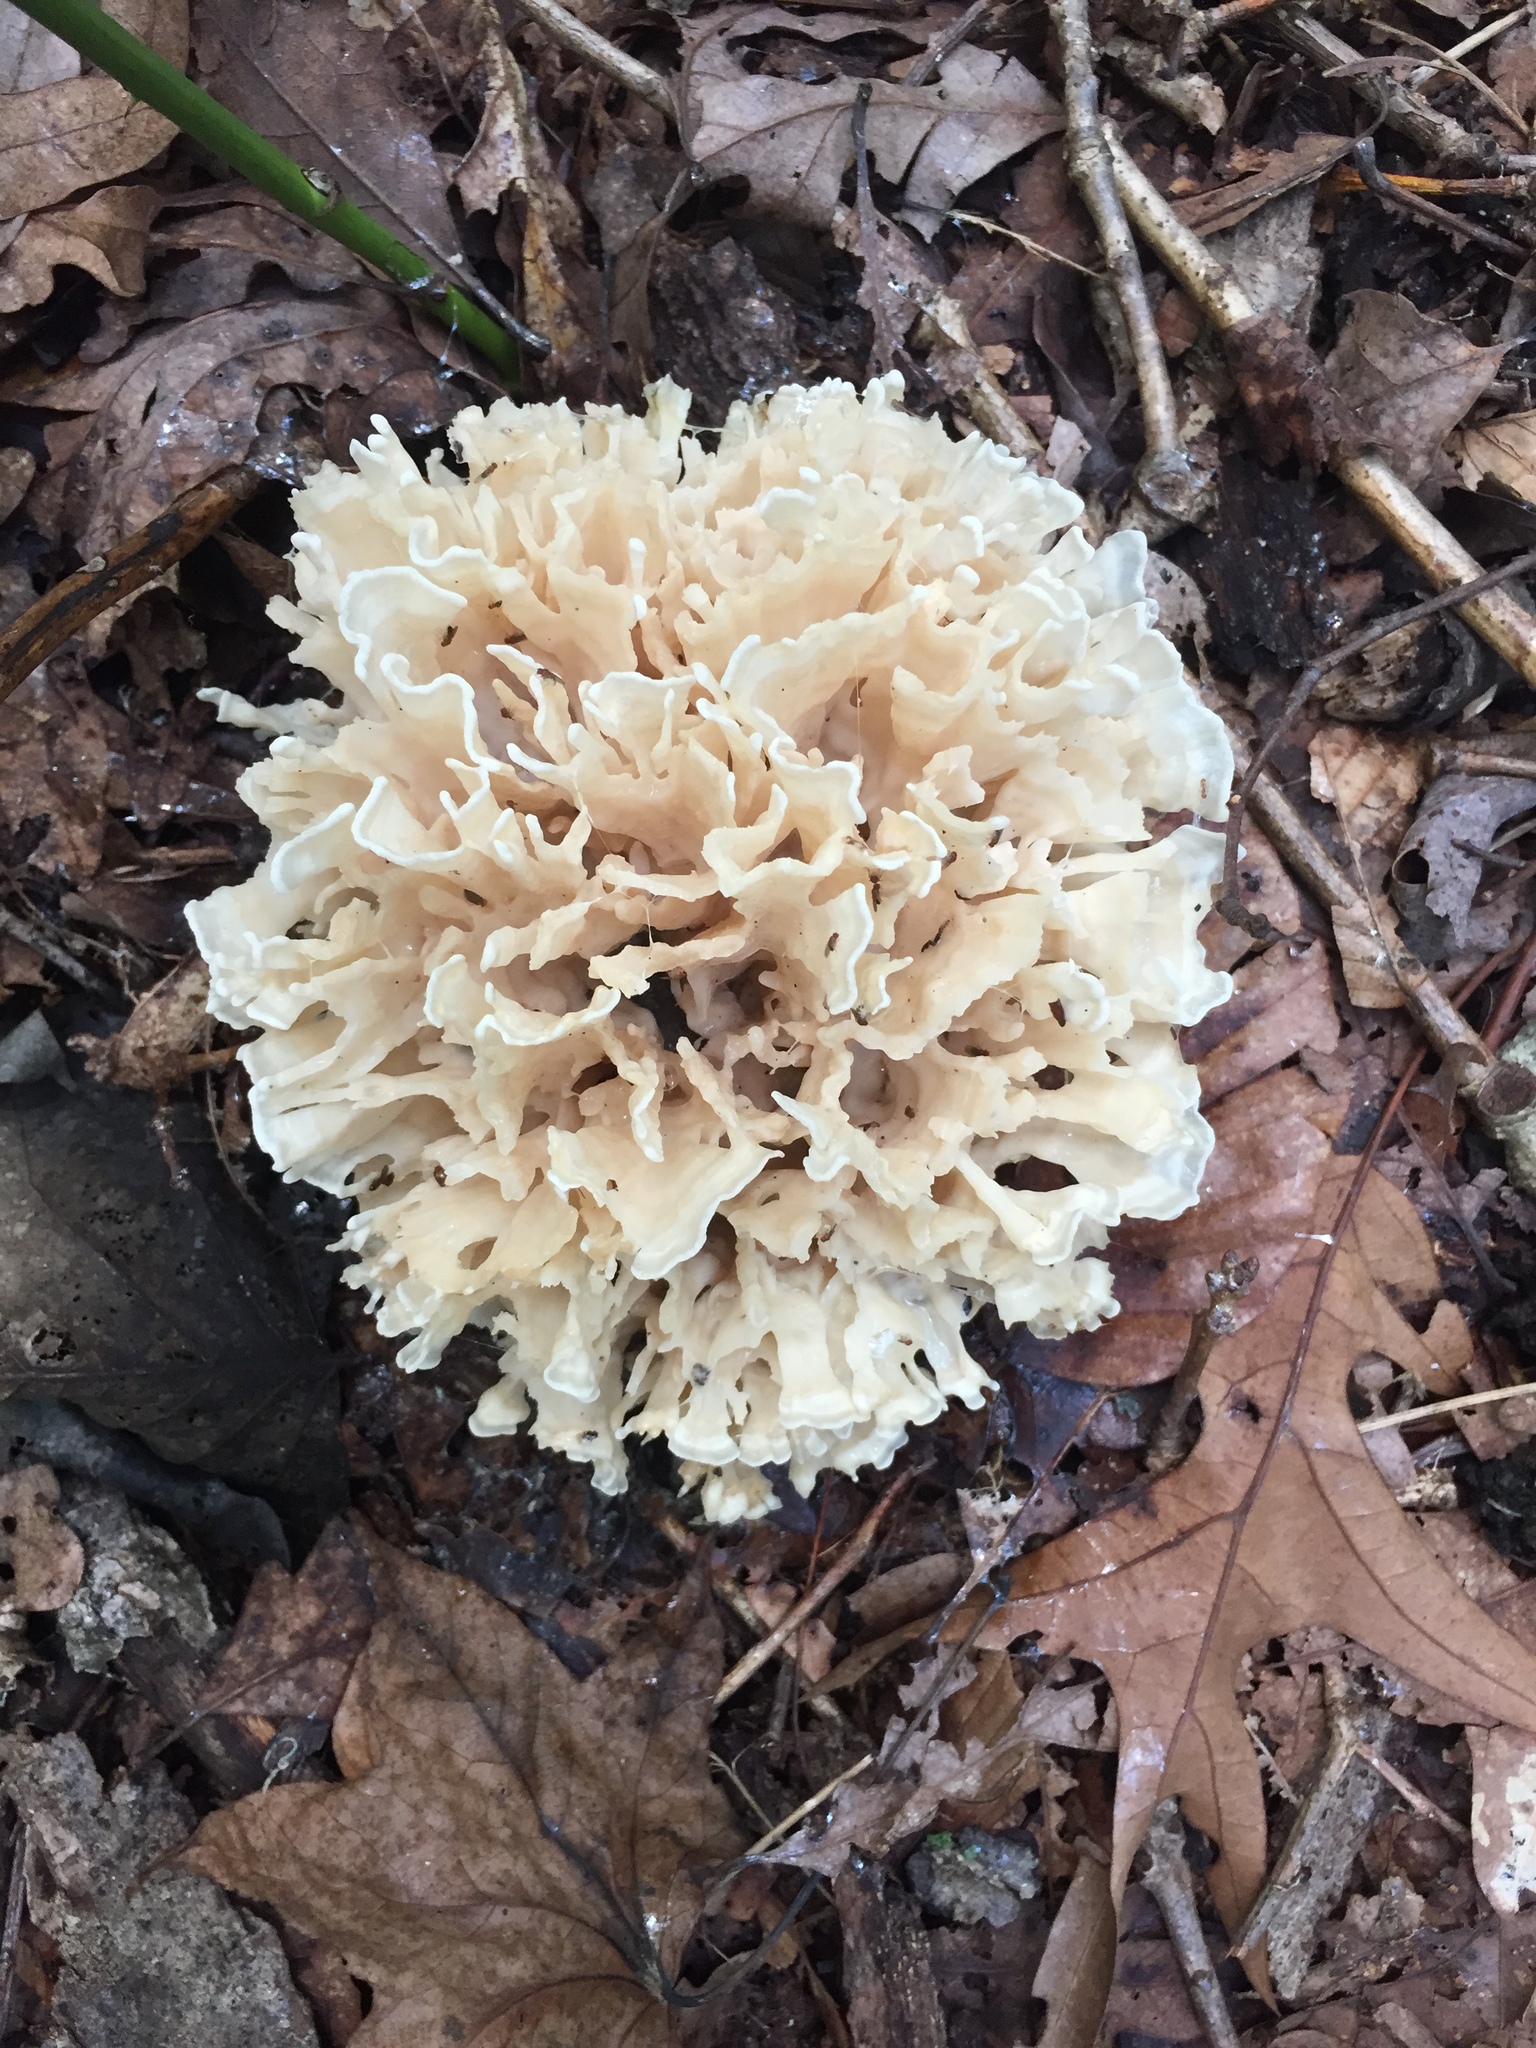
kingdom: Fungi
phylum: Basidiomycota
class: Agaricomycetes
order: Polyporales
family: Sparassidaceae
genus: Sparassis
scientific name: Sparassis spathulata
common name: Eastern cauliflower mushroom
